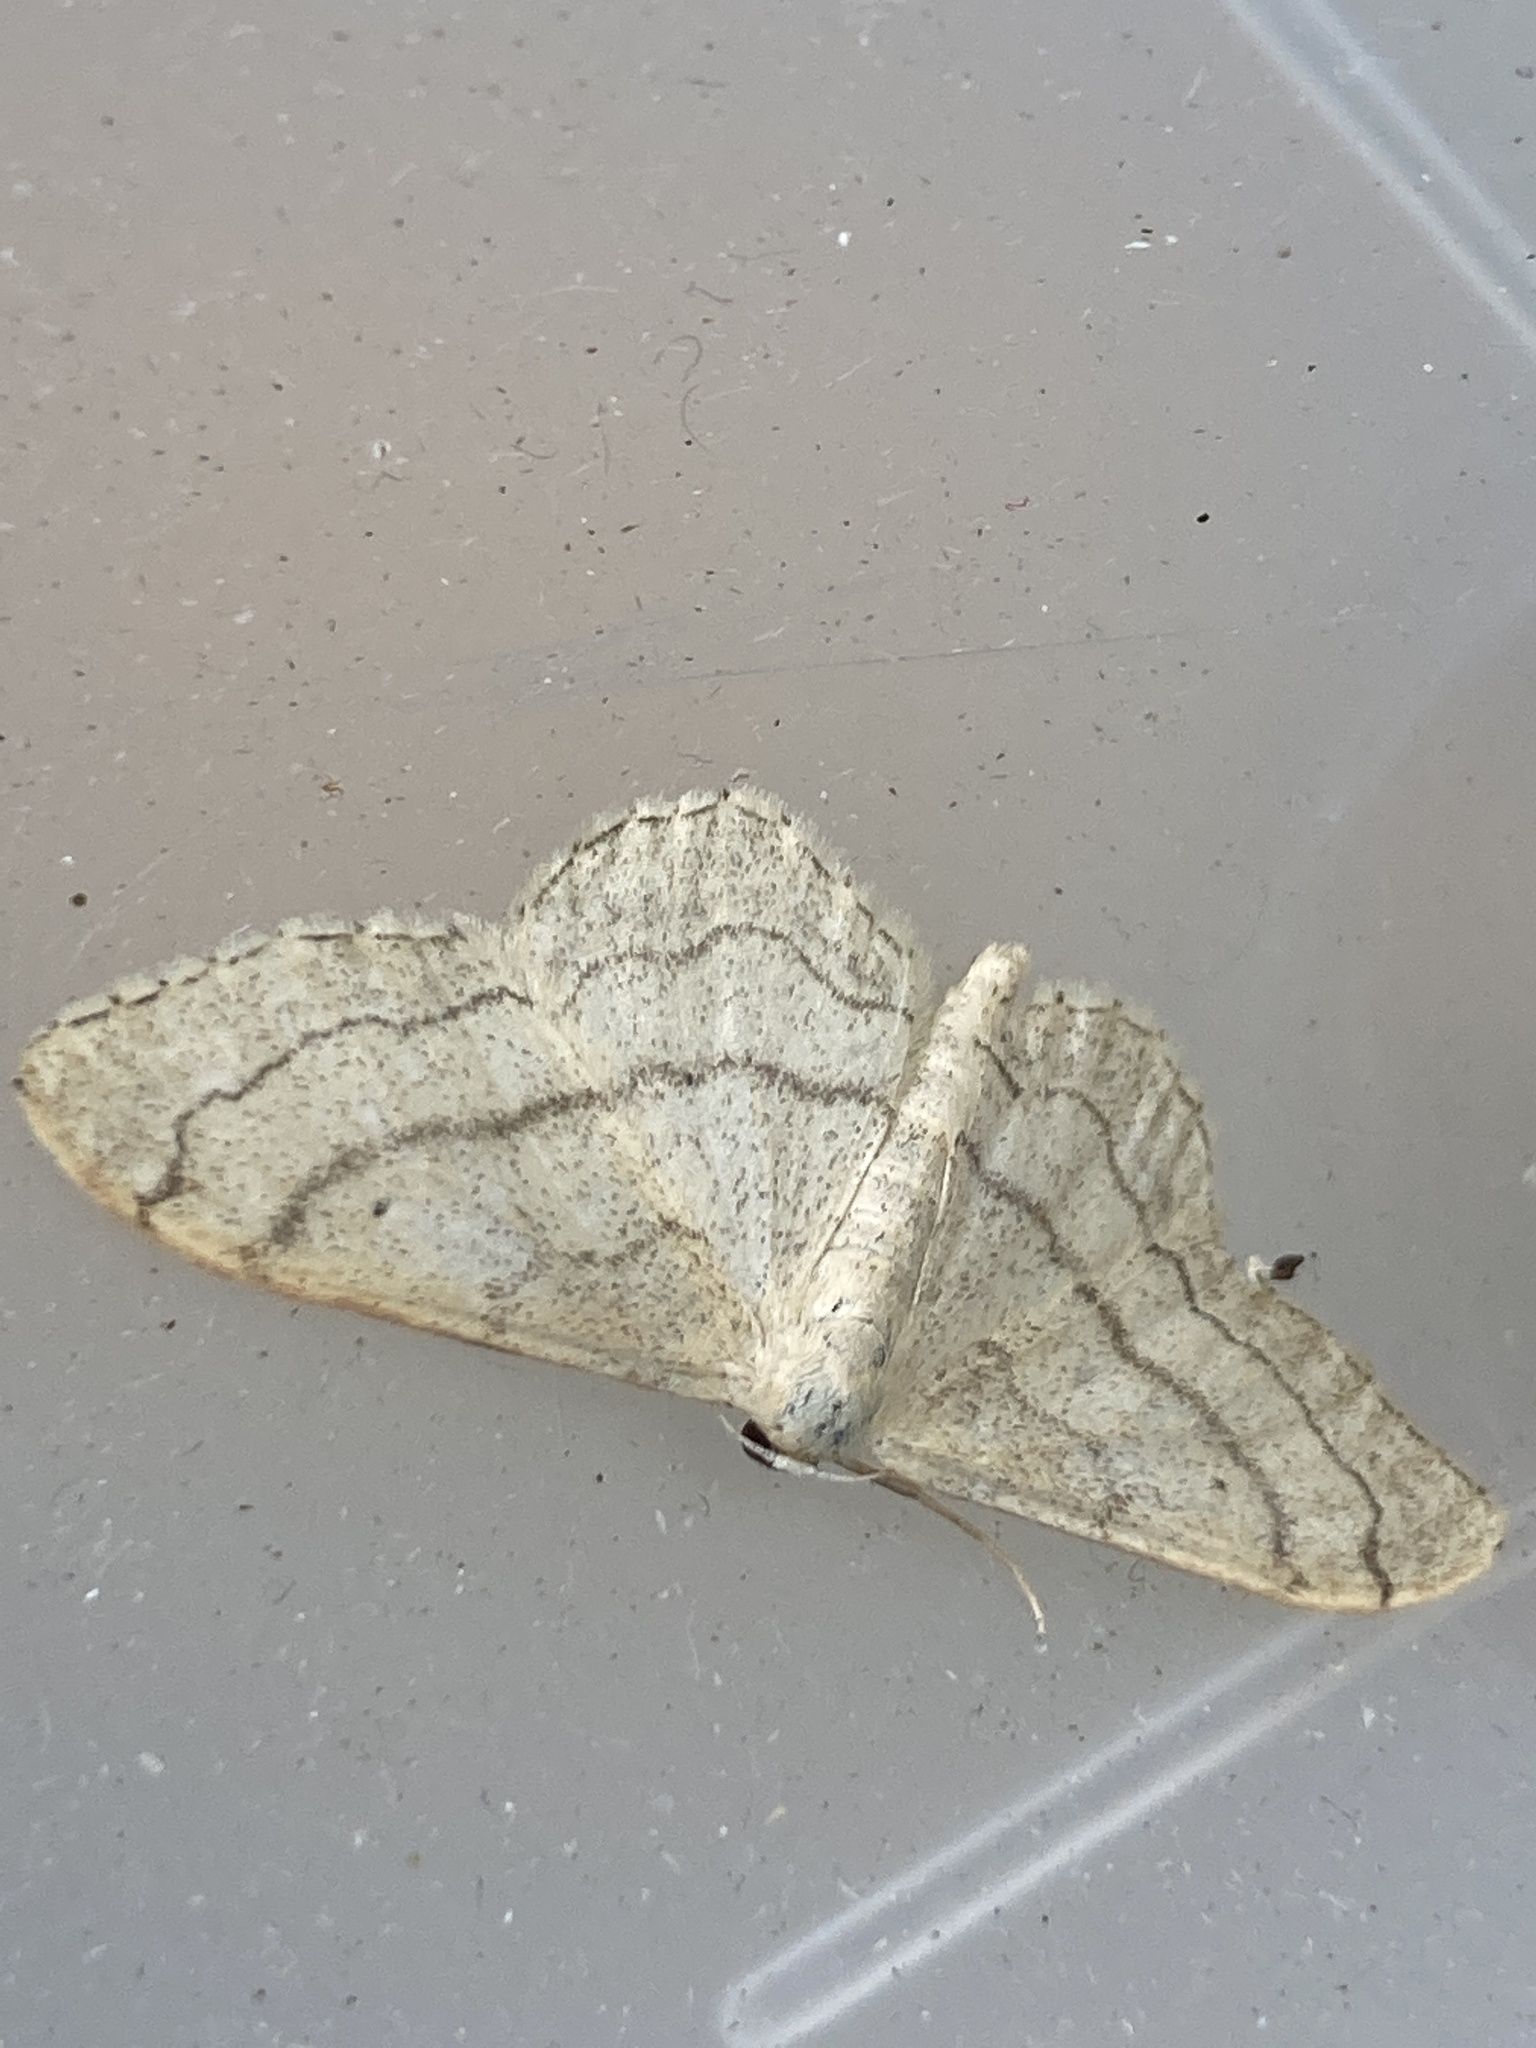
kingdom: Animalia
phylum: Arthropoda
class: Insecta
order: Lepidoptera
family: Geometridae
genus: Idaea
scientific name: Idaea aversata
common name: Riband wave
